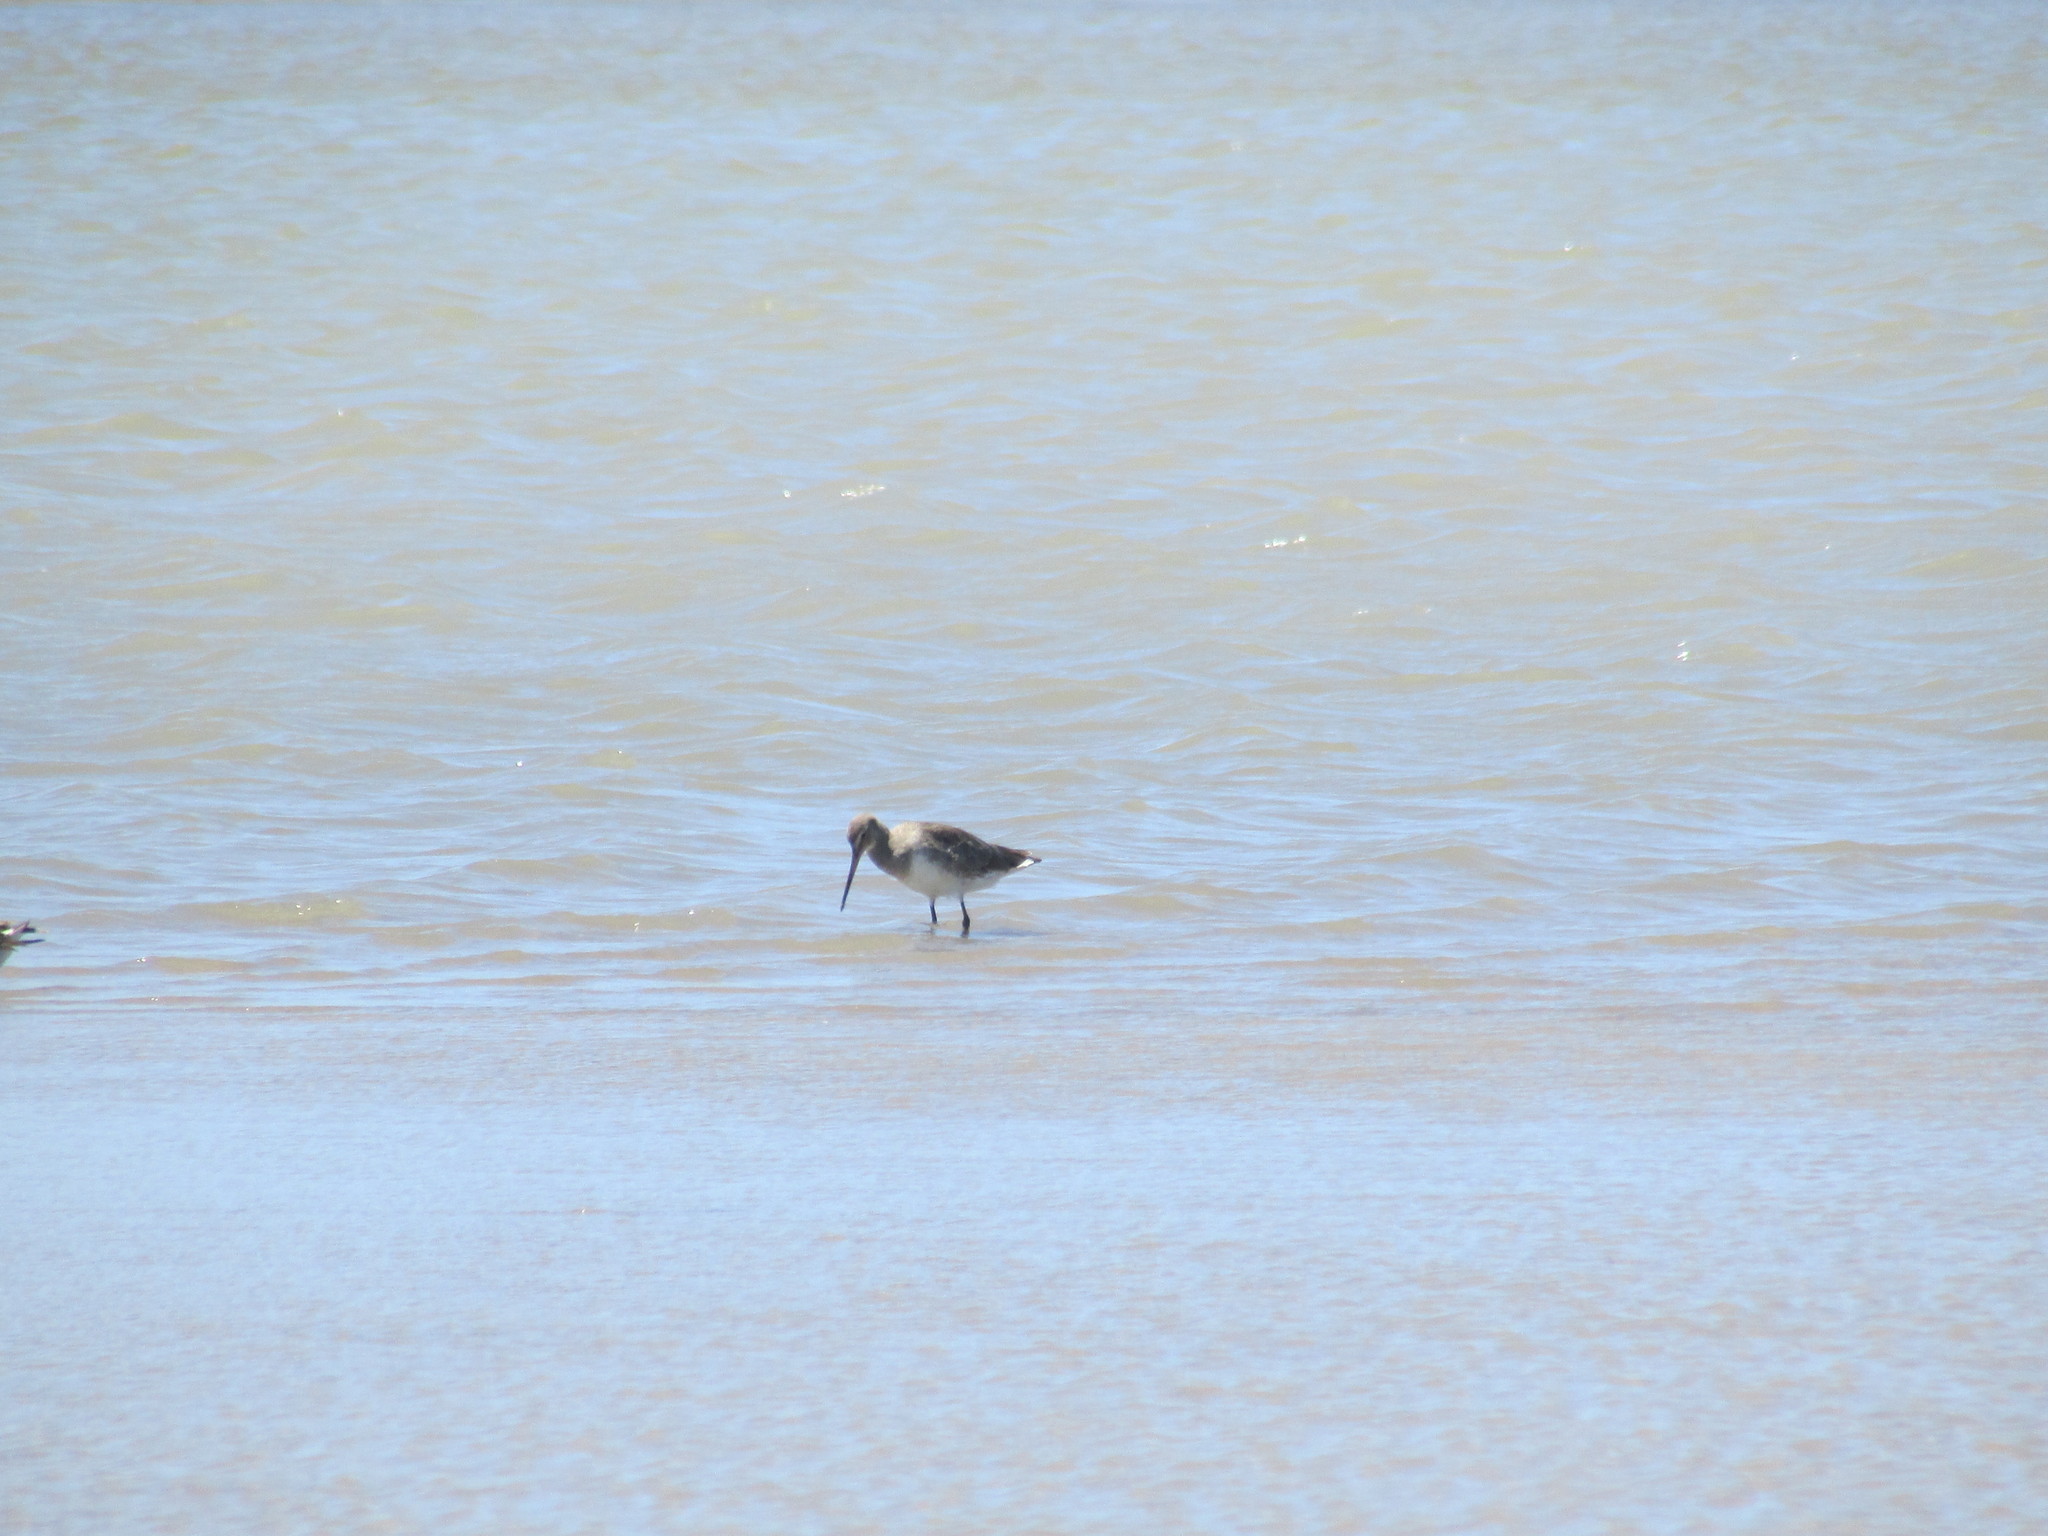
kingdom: Animalia
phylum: Chordata
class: Aves
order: Charadriiformes
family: Scolopacidae
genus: Limosa
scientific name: Limosa haemastica
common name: Hudsonian godwit
